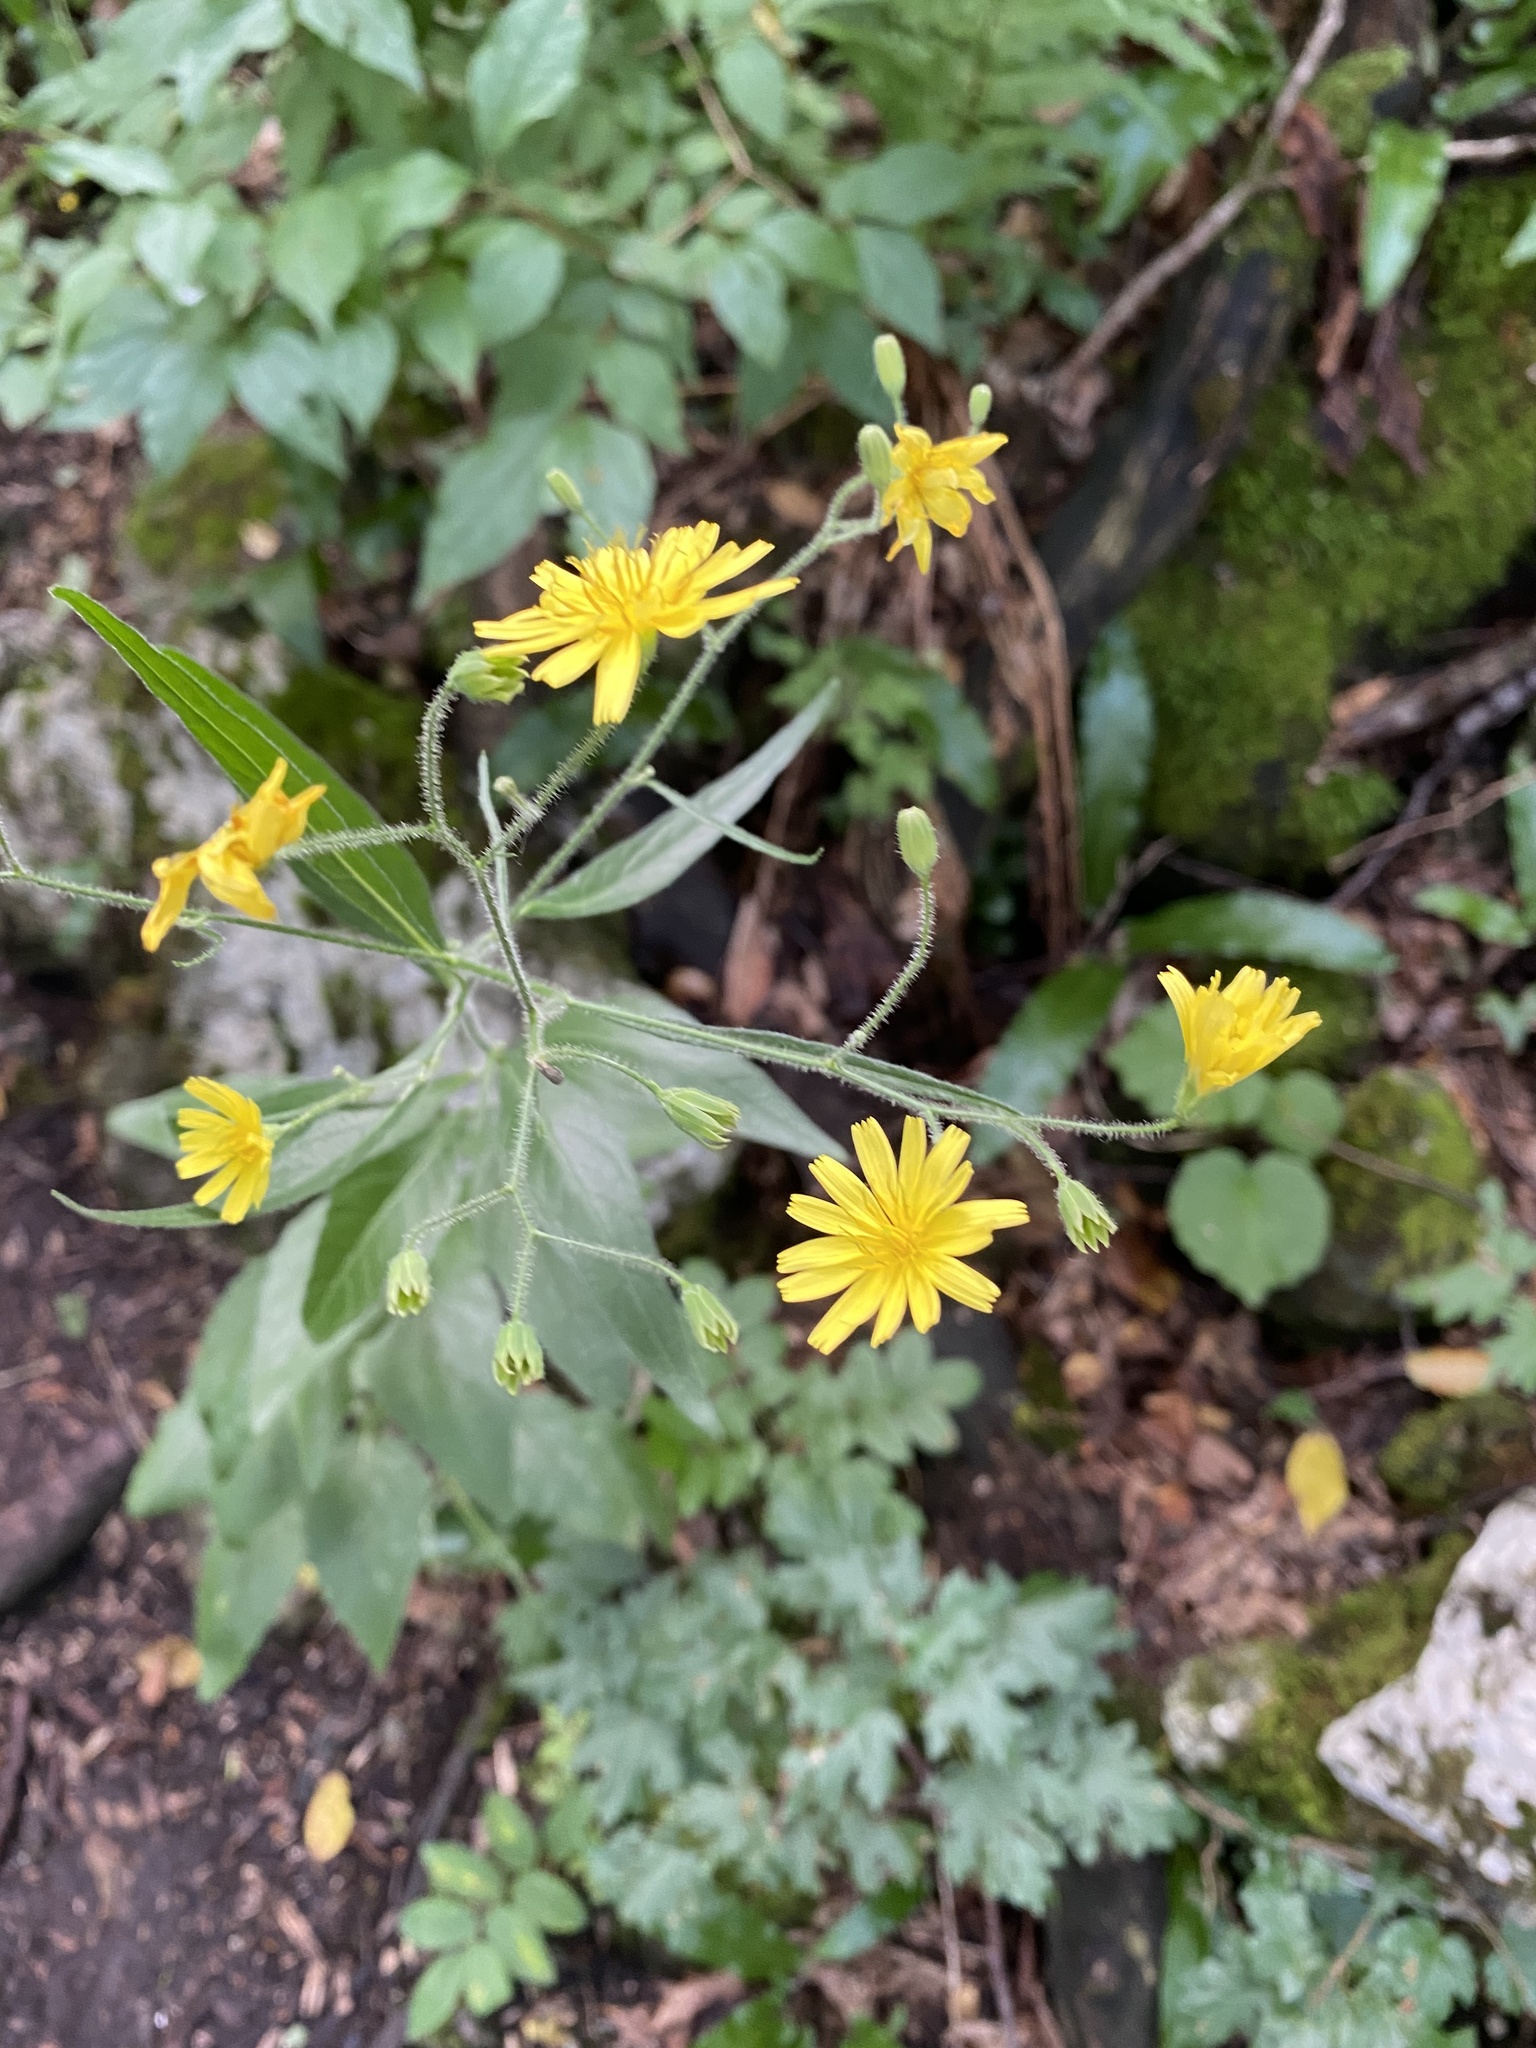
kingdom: Plantae
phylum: Tracheophyta
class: Magnoliopsida
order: Asterales
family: Asteraceae
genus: Lapsana
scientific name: Lapsana communis
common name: Nipplewort
